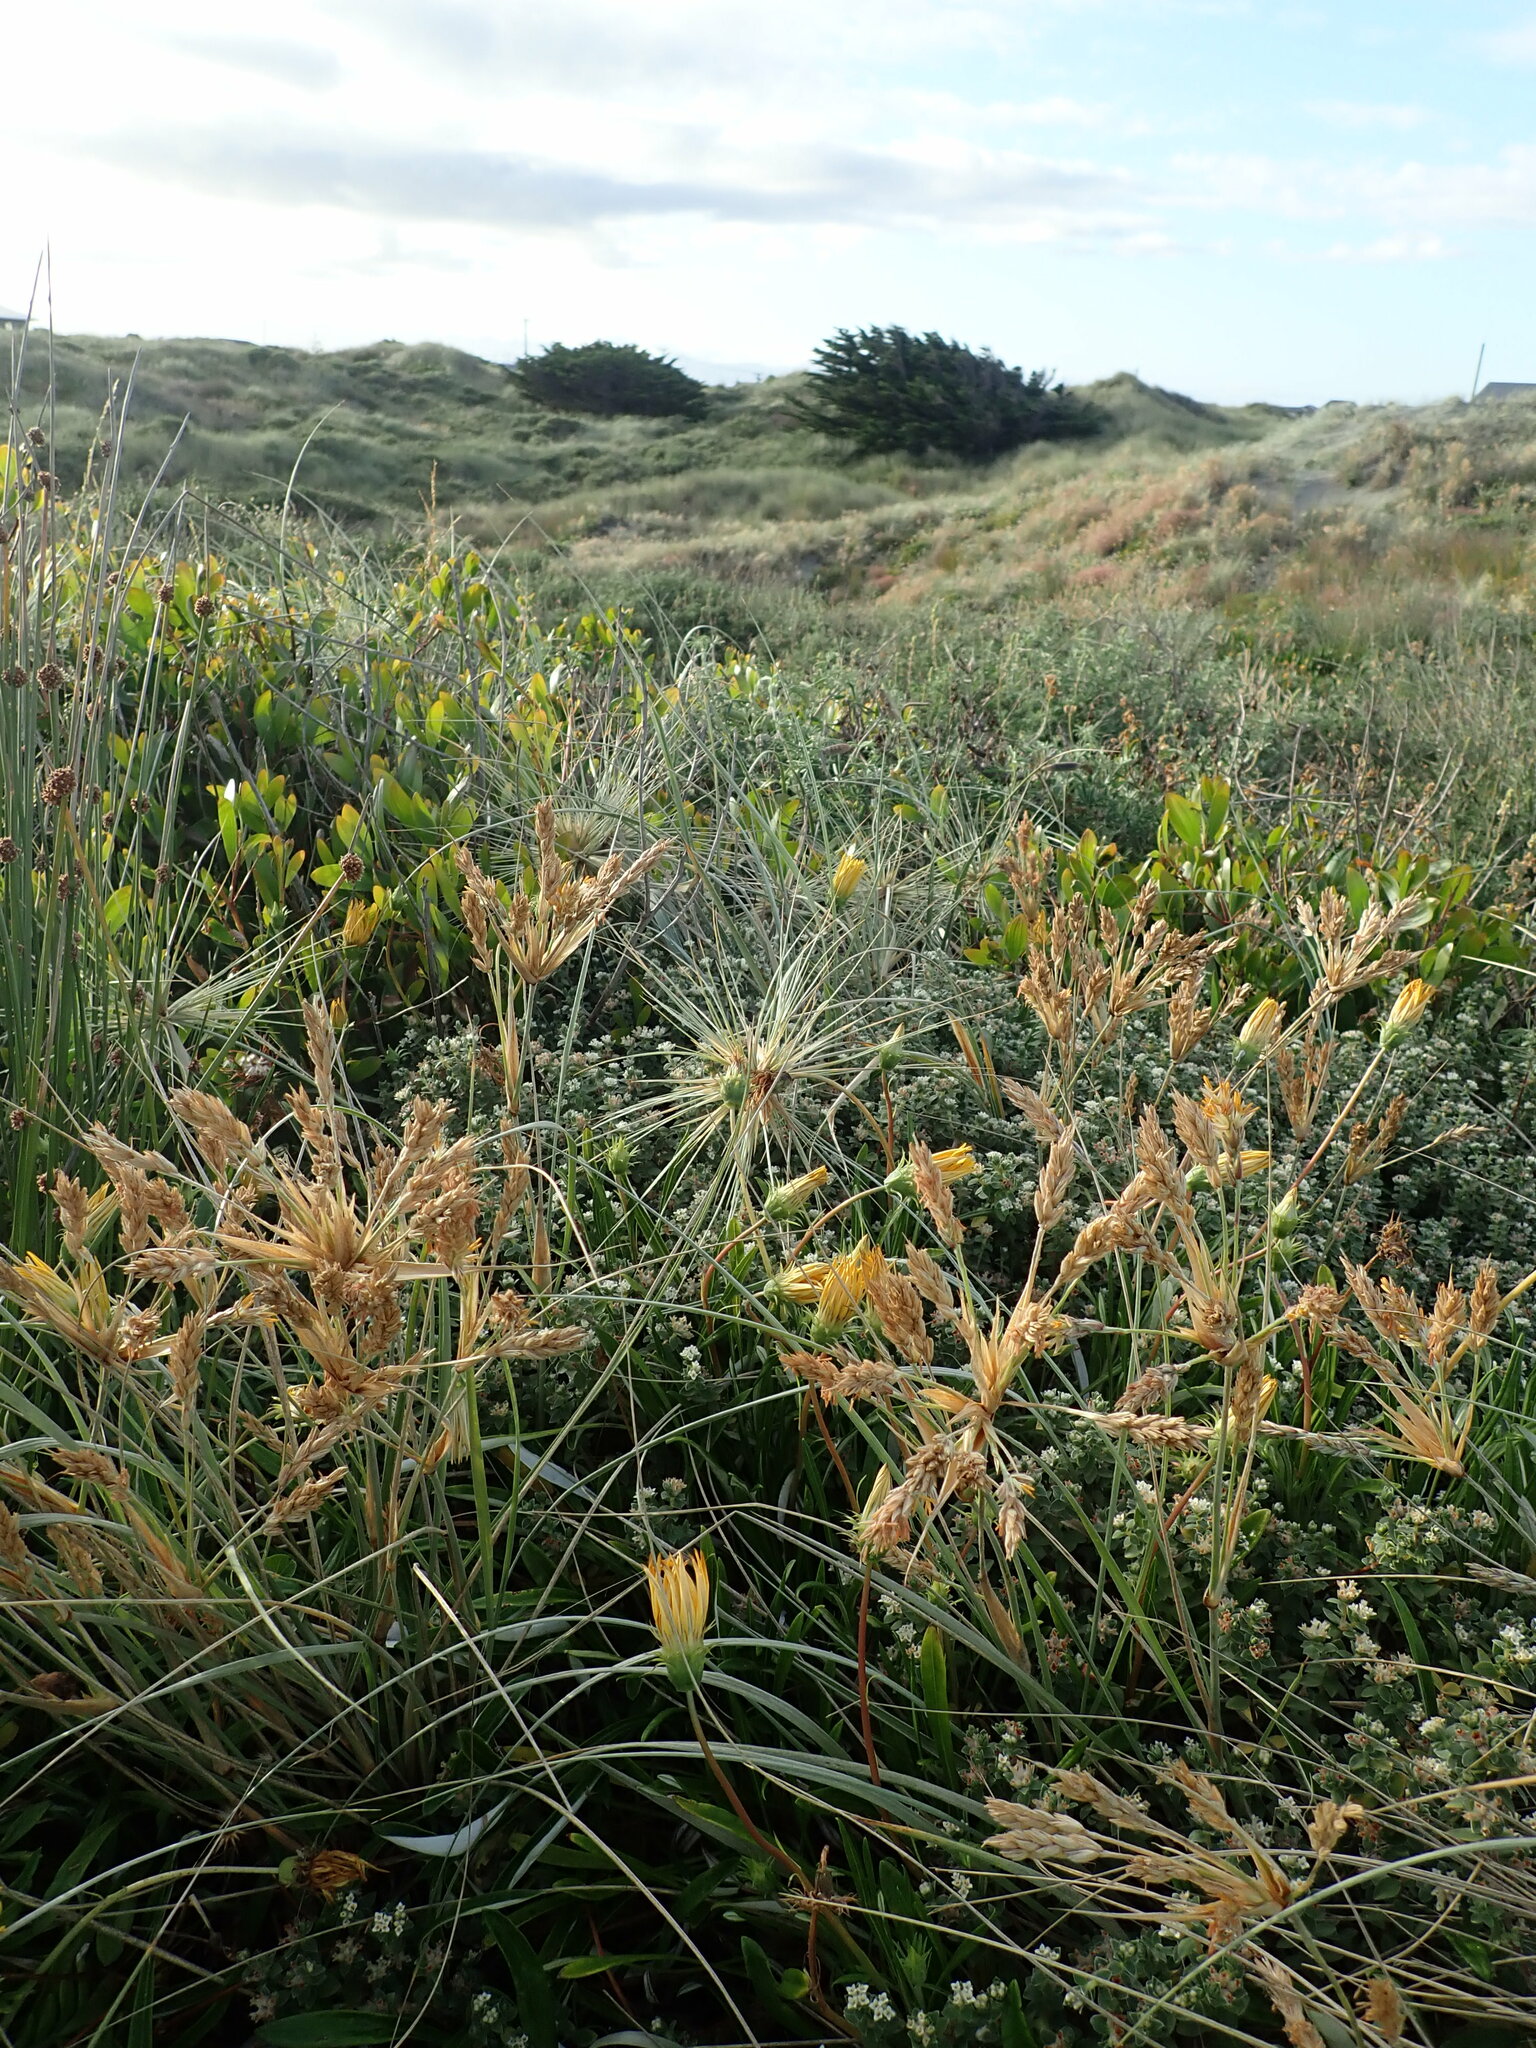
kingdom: Plantae
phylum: Tracheophyta
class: Magnoliopsida
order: Malvales
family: Thymelaeaceae
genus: Pimelea
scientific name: Pimelea villosa
